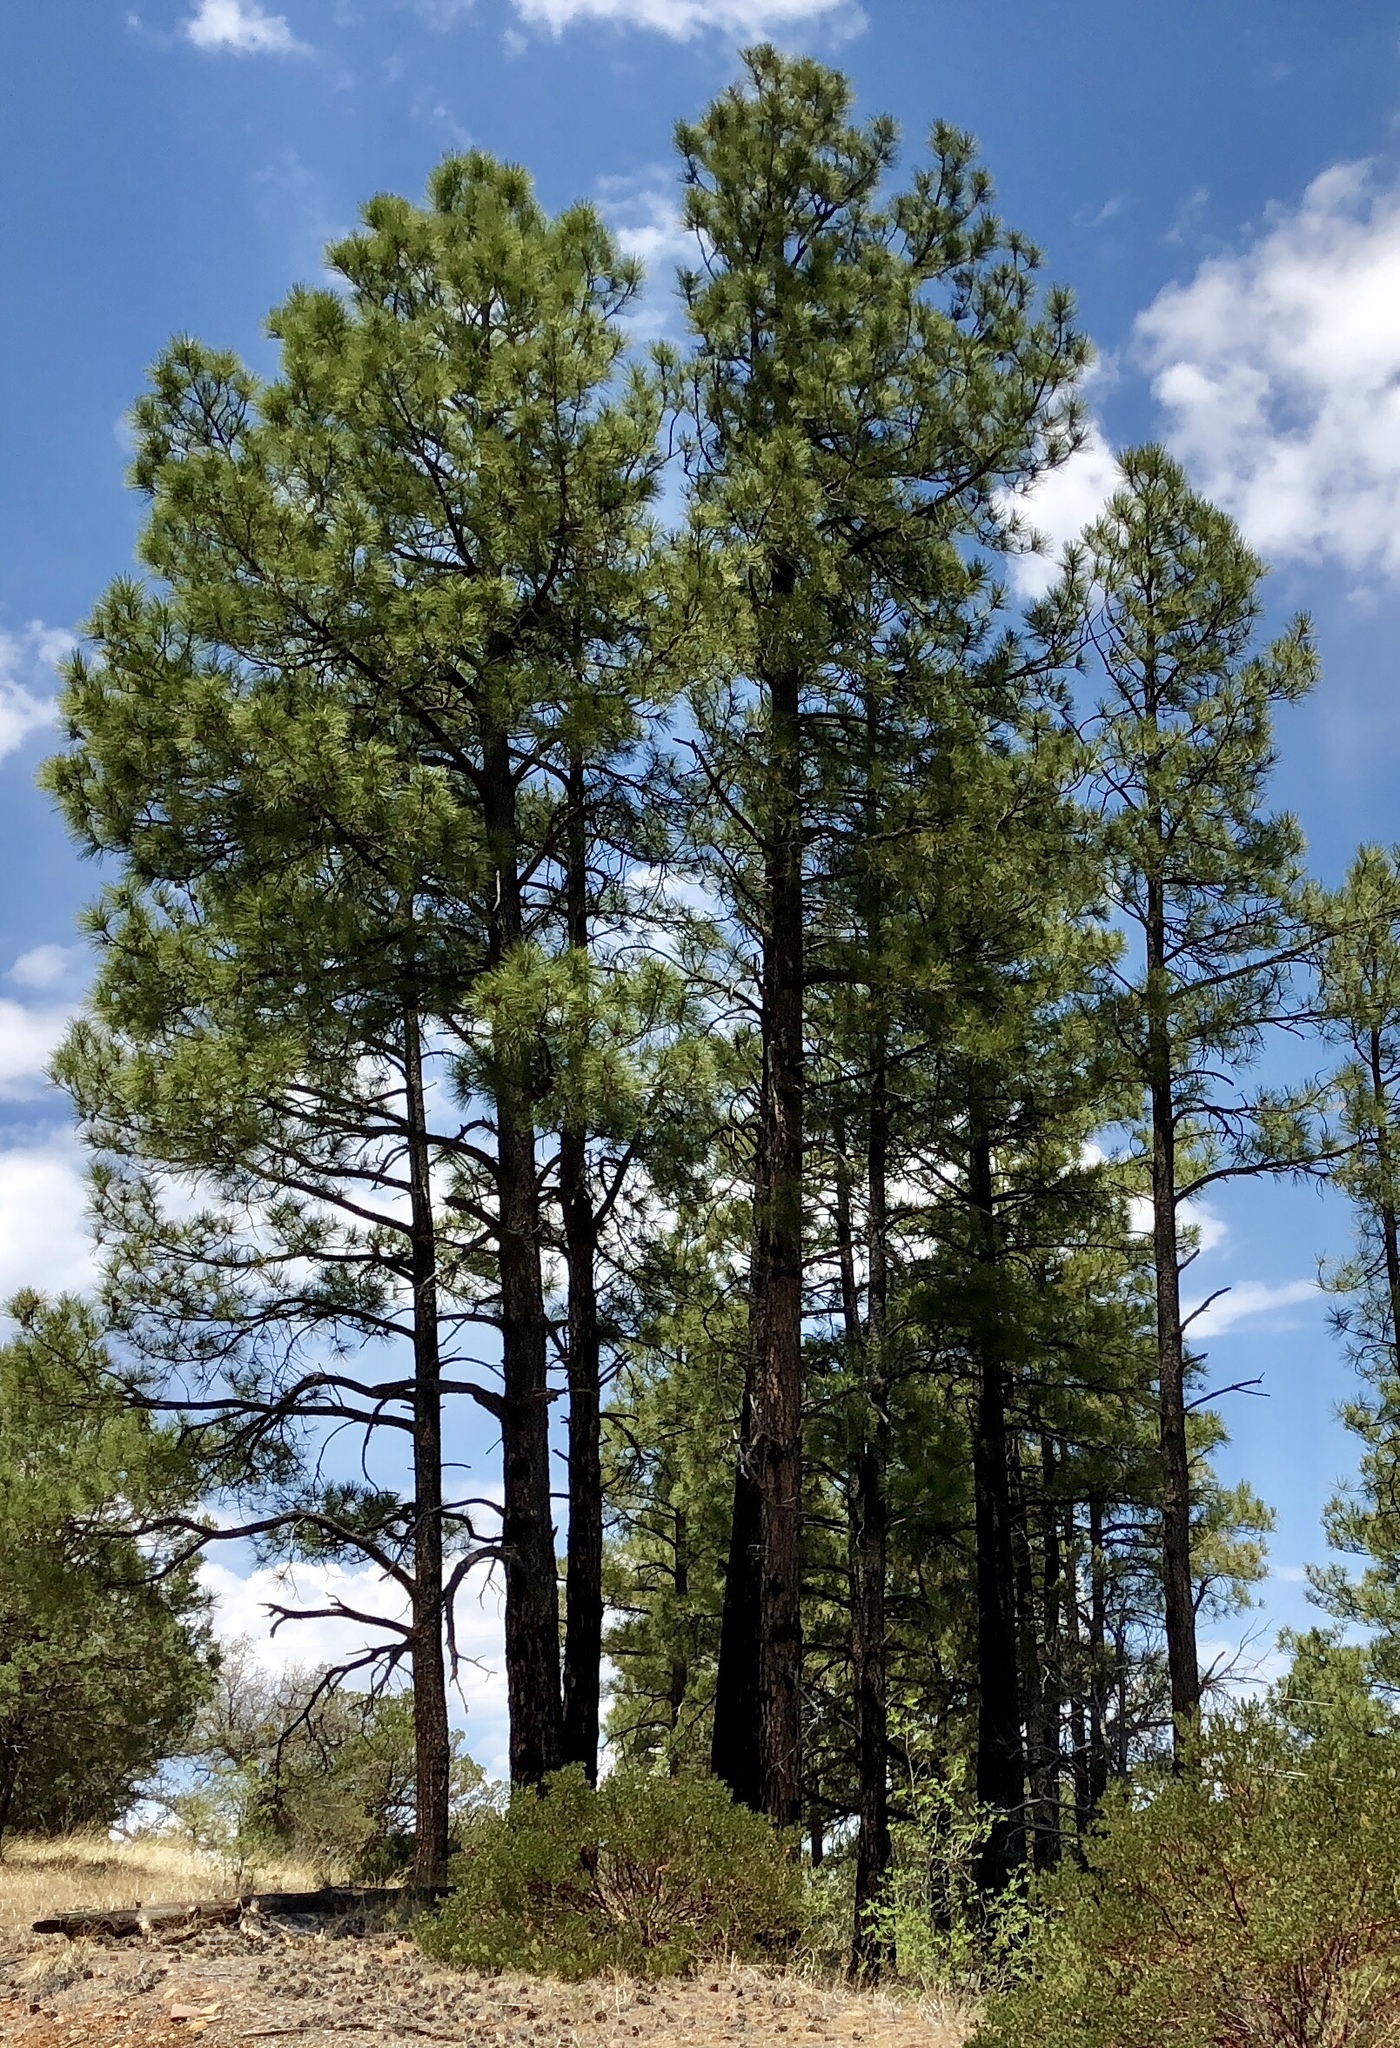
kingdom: Plantae
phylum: Tracheophyta
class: Pinopsida
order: Pinales
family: Pinaceae
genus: Pinus
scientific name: Pinus ponderosa
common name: Western yellow-pine
